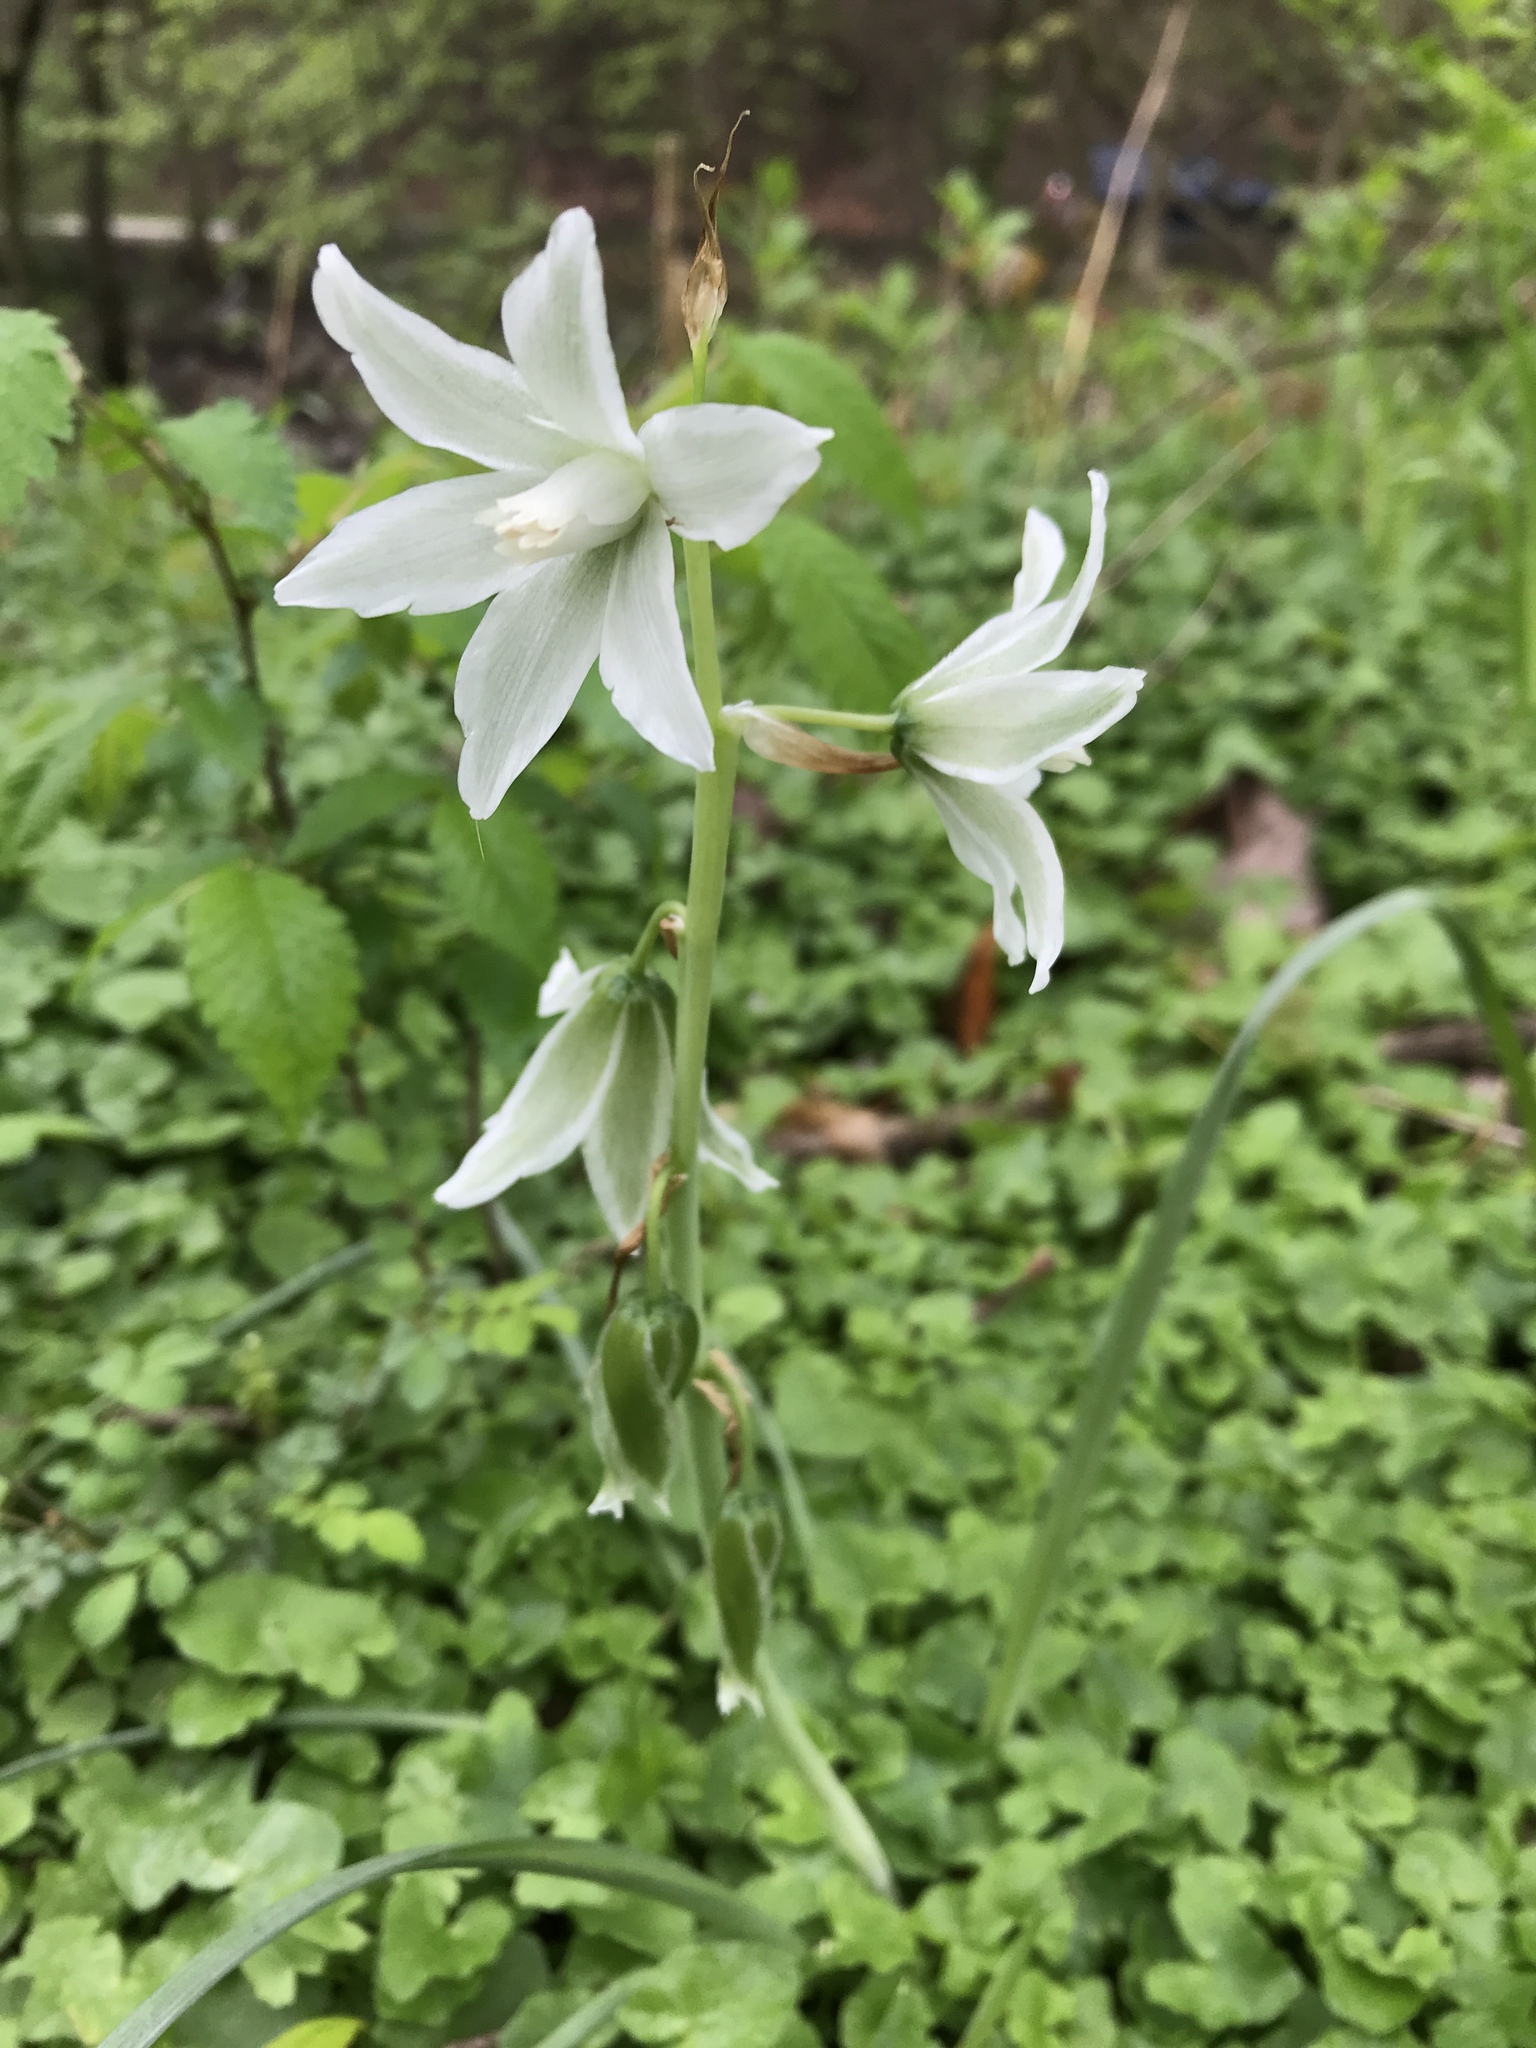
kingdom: Plantae
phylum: Tracheophyta
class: Liliopsida
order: Asparagales
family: Asparagaceae
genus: Ornithogalum
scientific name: Ornithogalum nutans
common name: Drooping star-of-bethlehem
